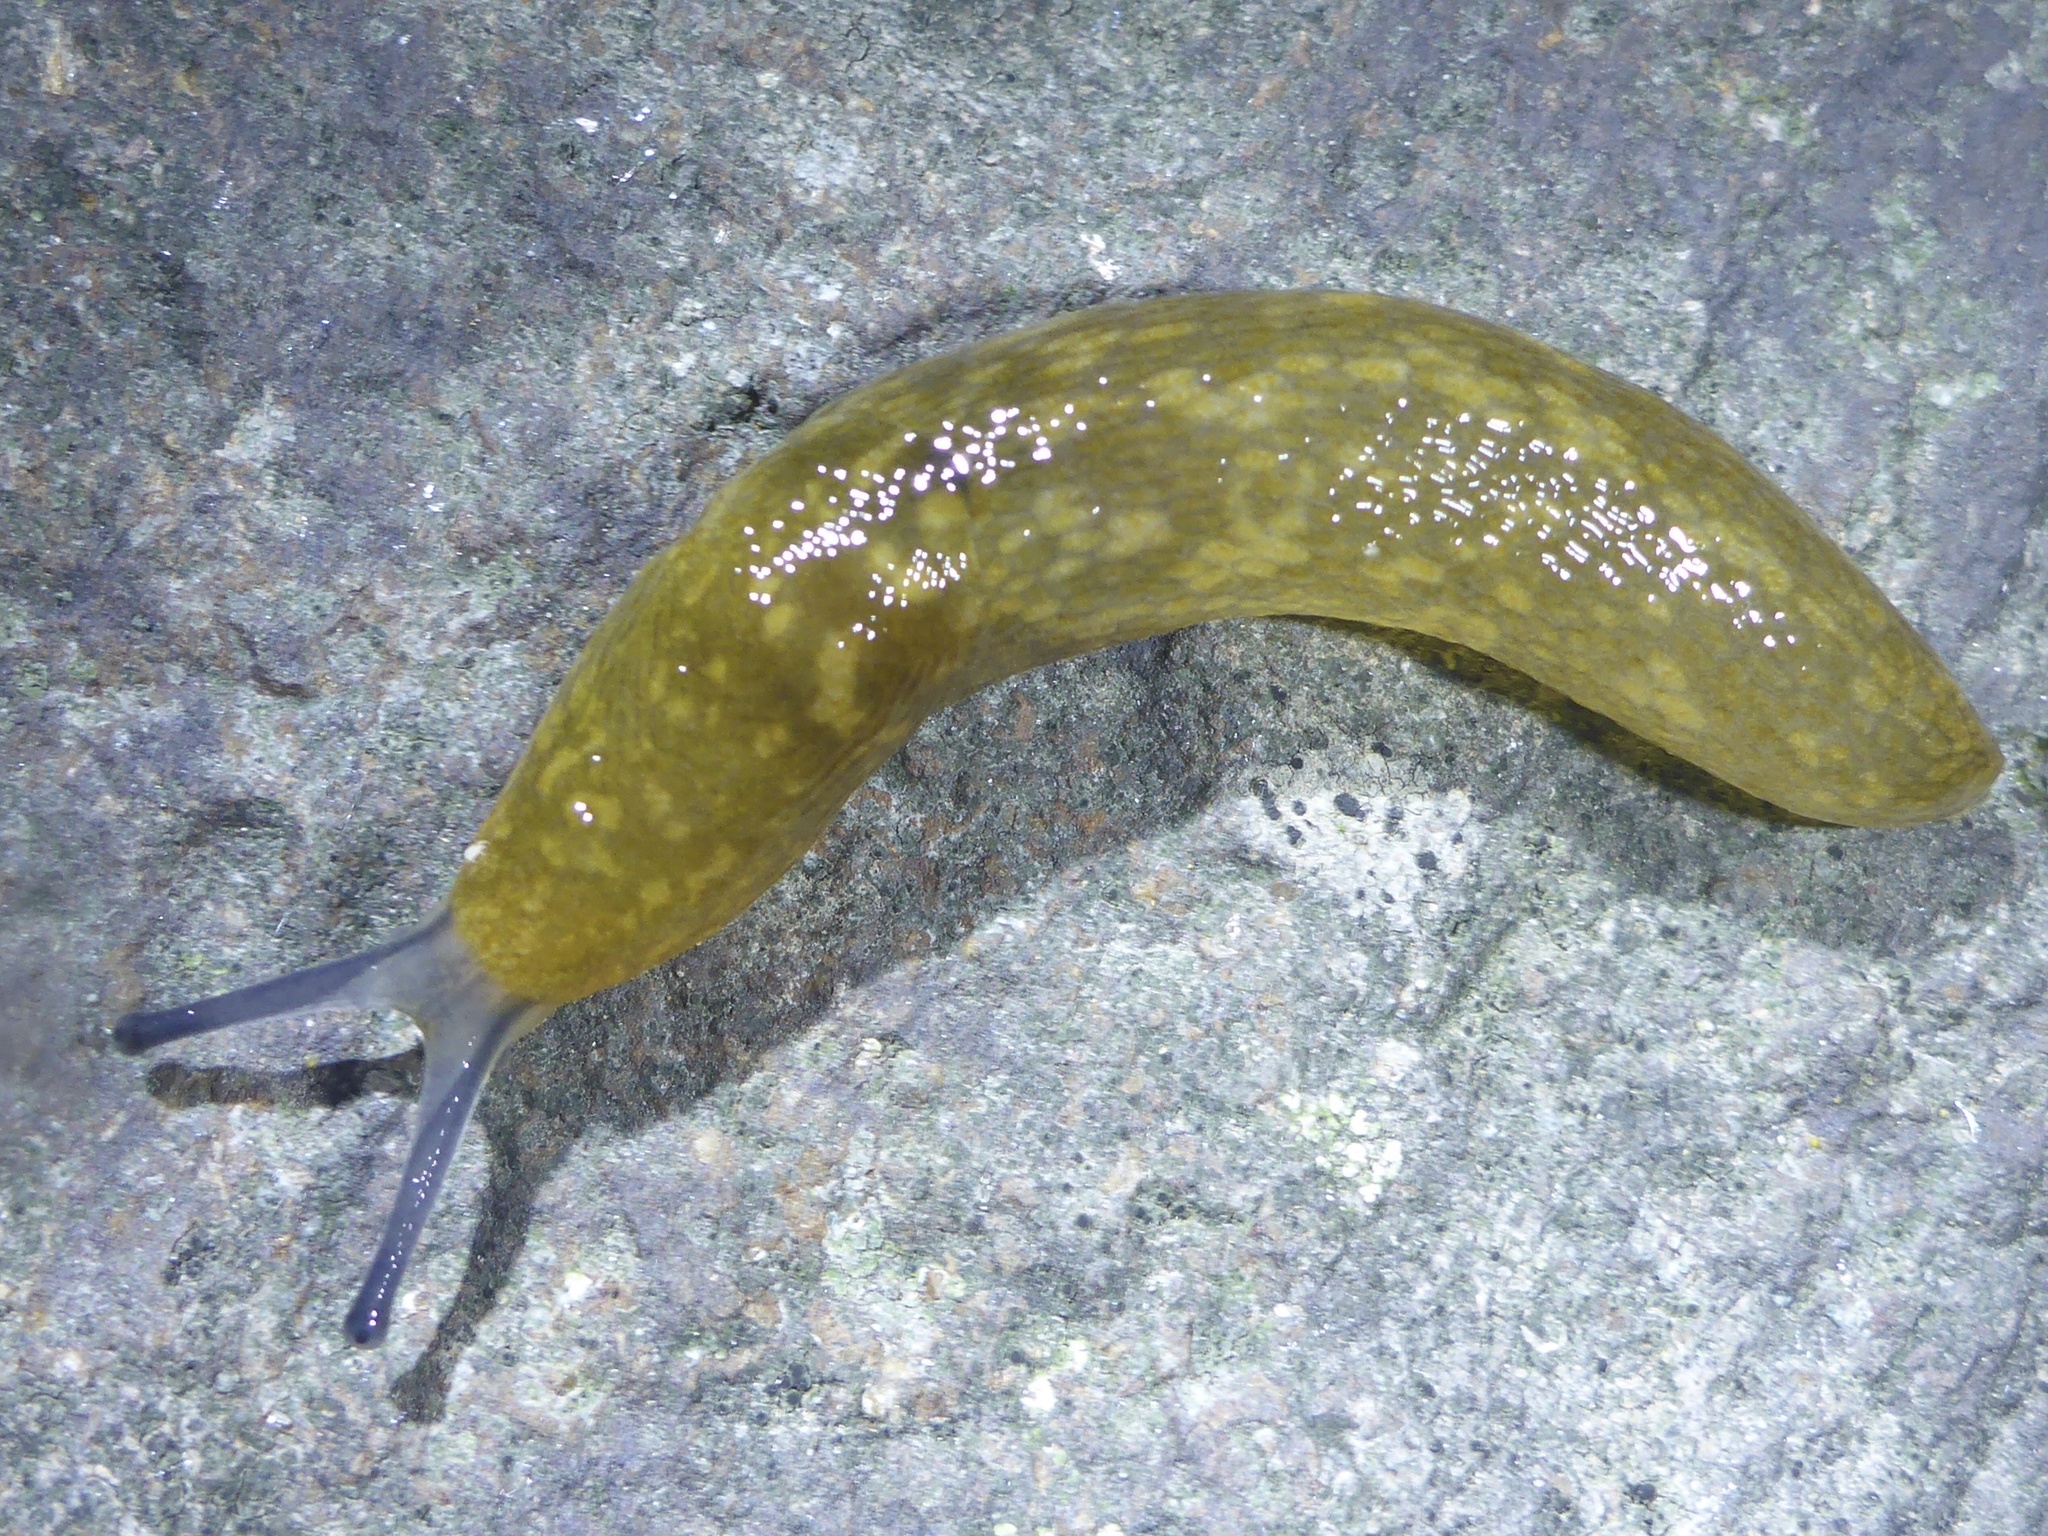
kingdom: Animalia
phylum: Mollusca
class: Gastropoda
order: Stylommatophora
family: Limacidae
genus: Limacus
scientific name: Limacus flavus
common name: Yellow gardenslug
